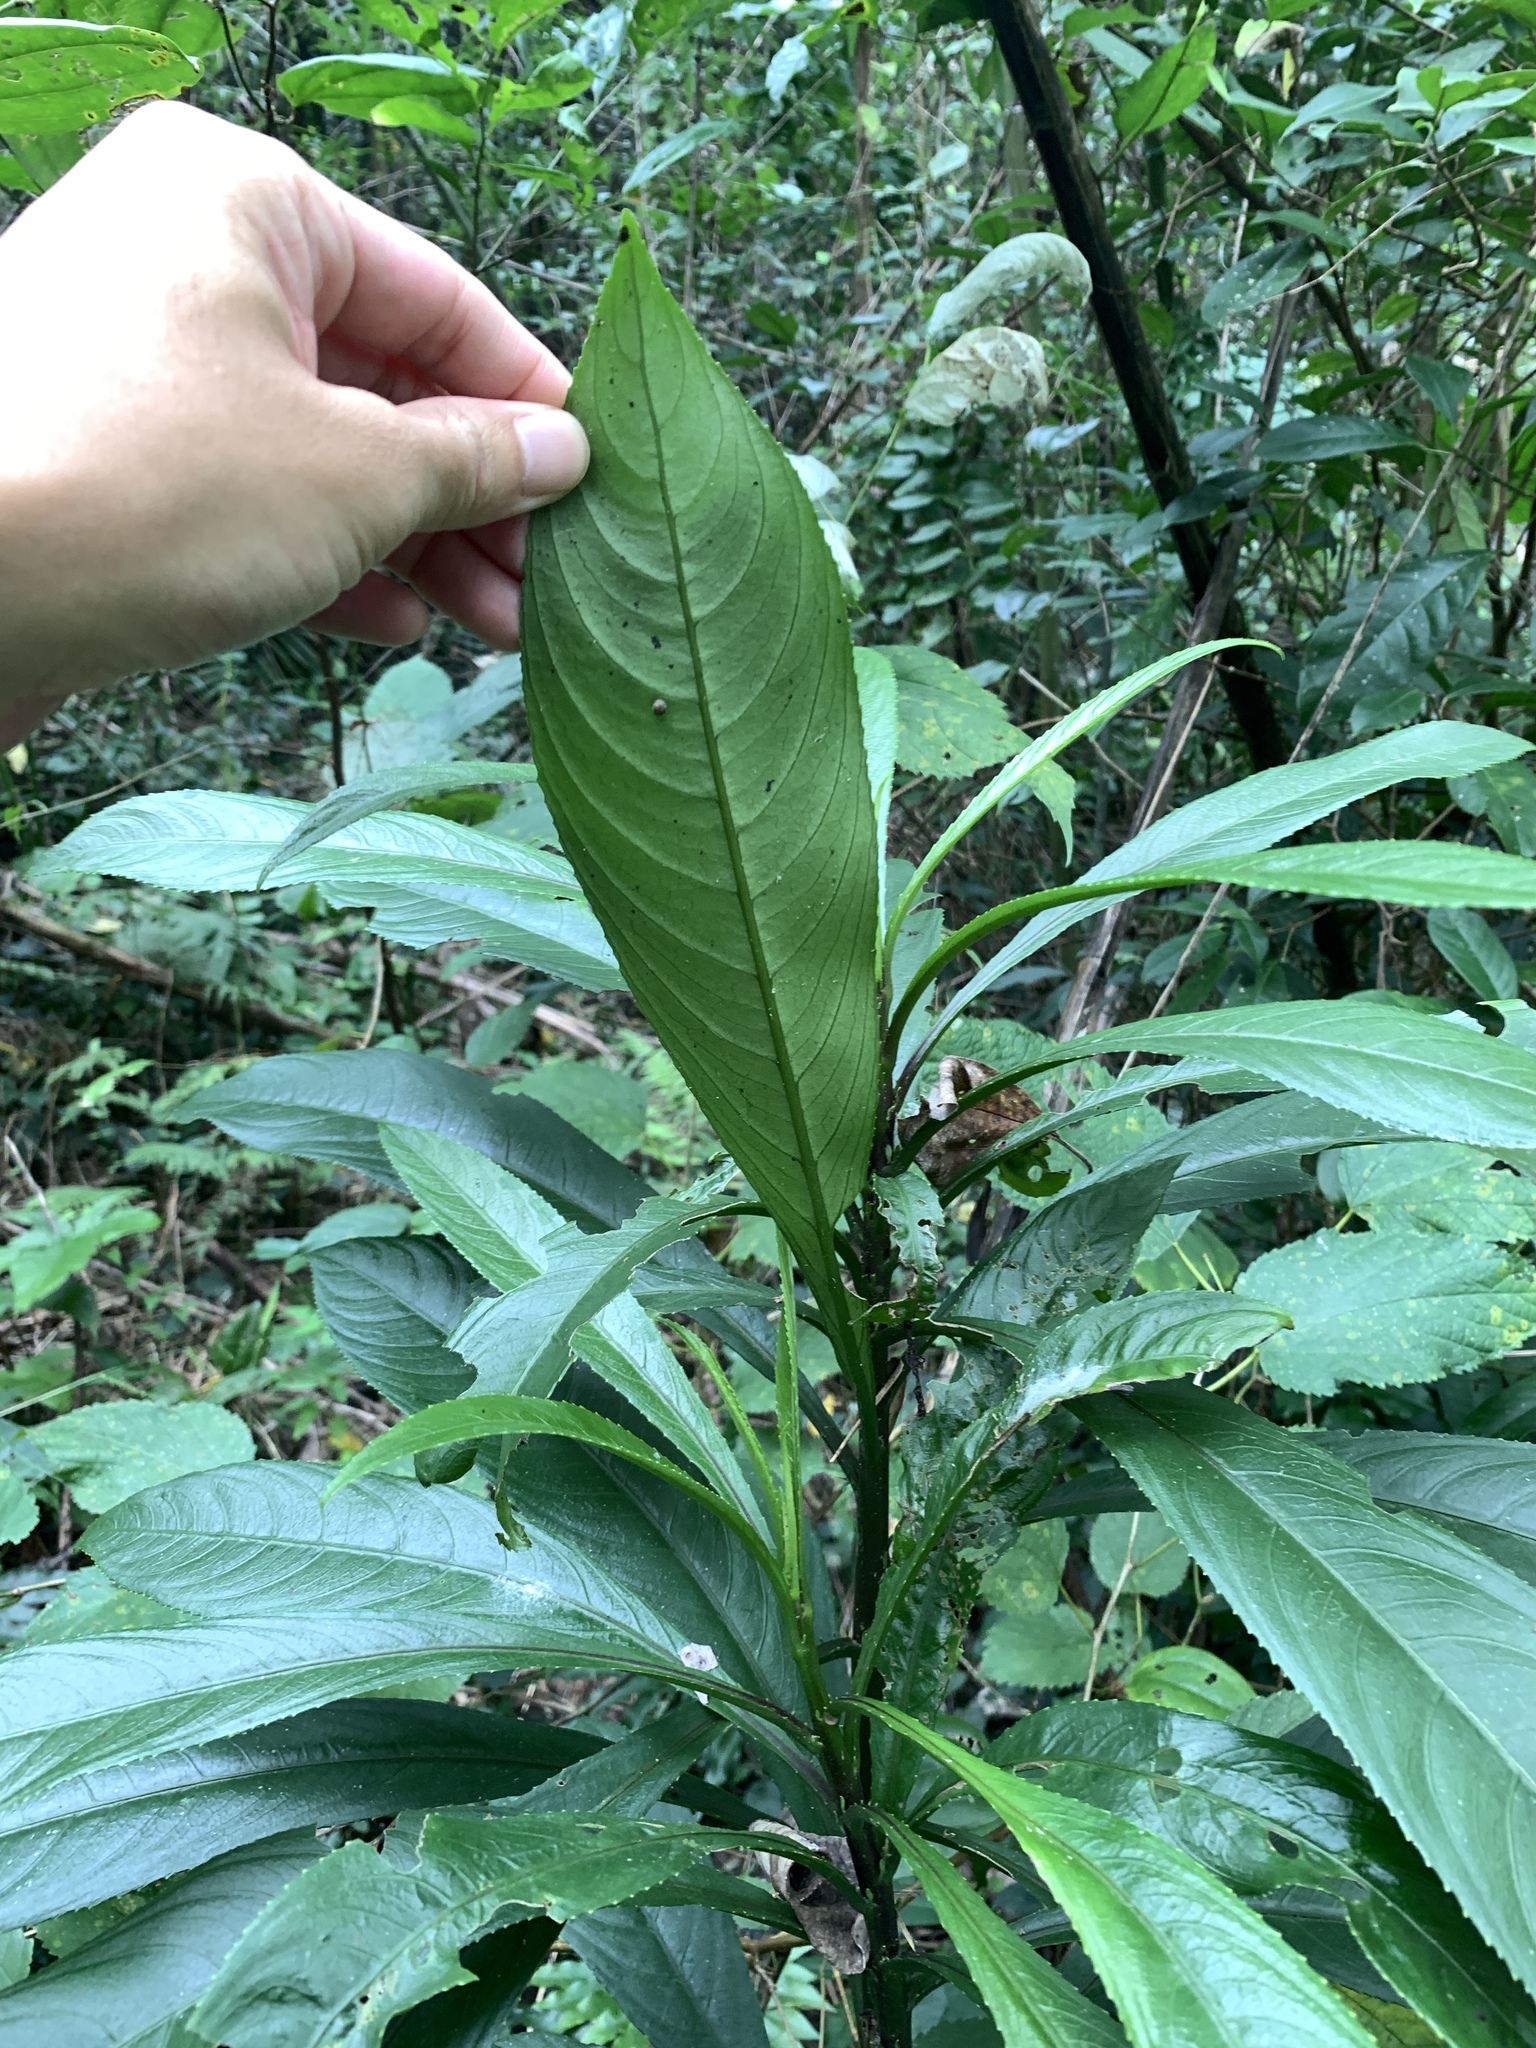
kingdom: Plantae
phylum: Tracheophyta
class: Magnoliopsida
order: Asterales
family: Asteraceae
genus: Blumea
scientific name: Blumea lanceolaria
